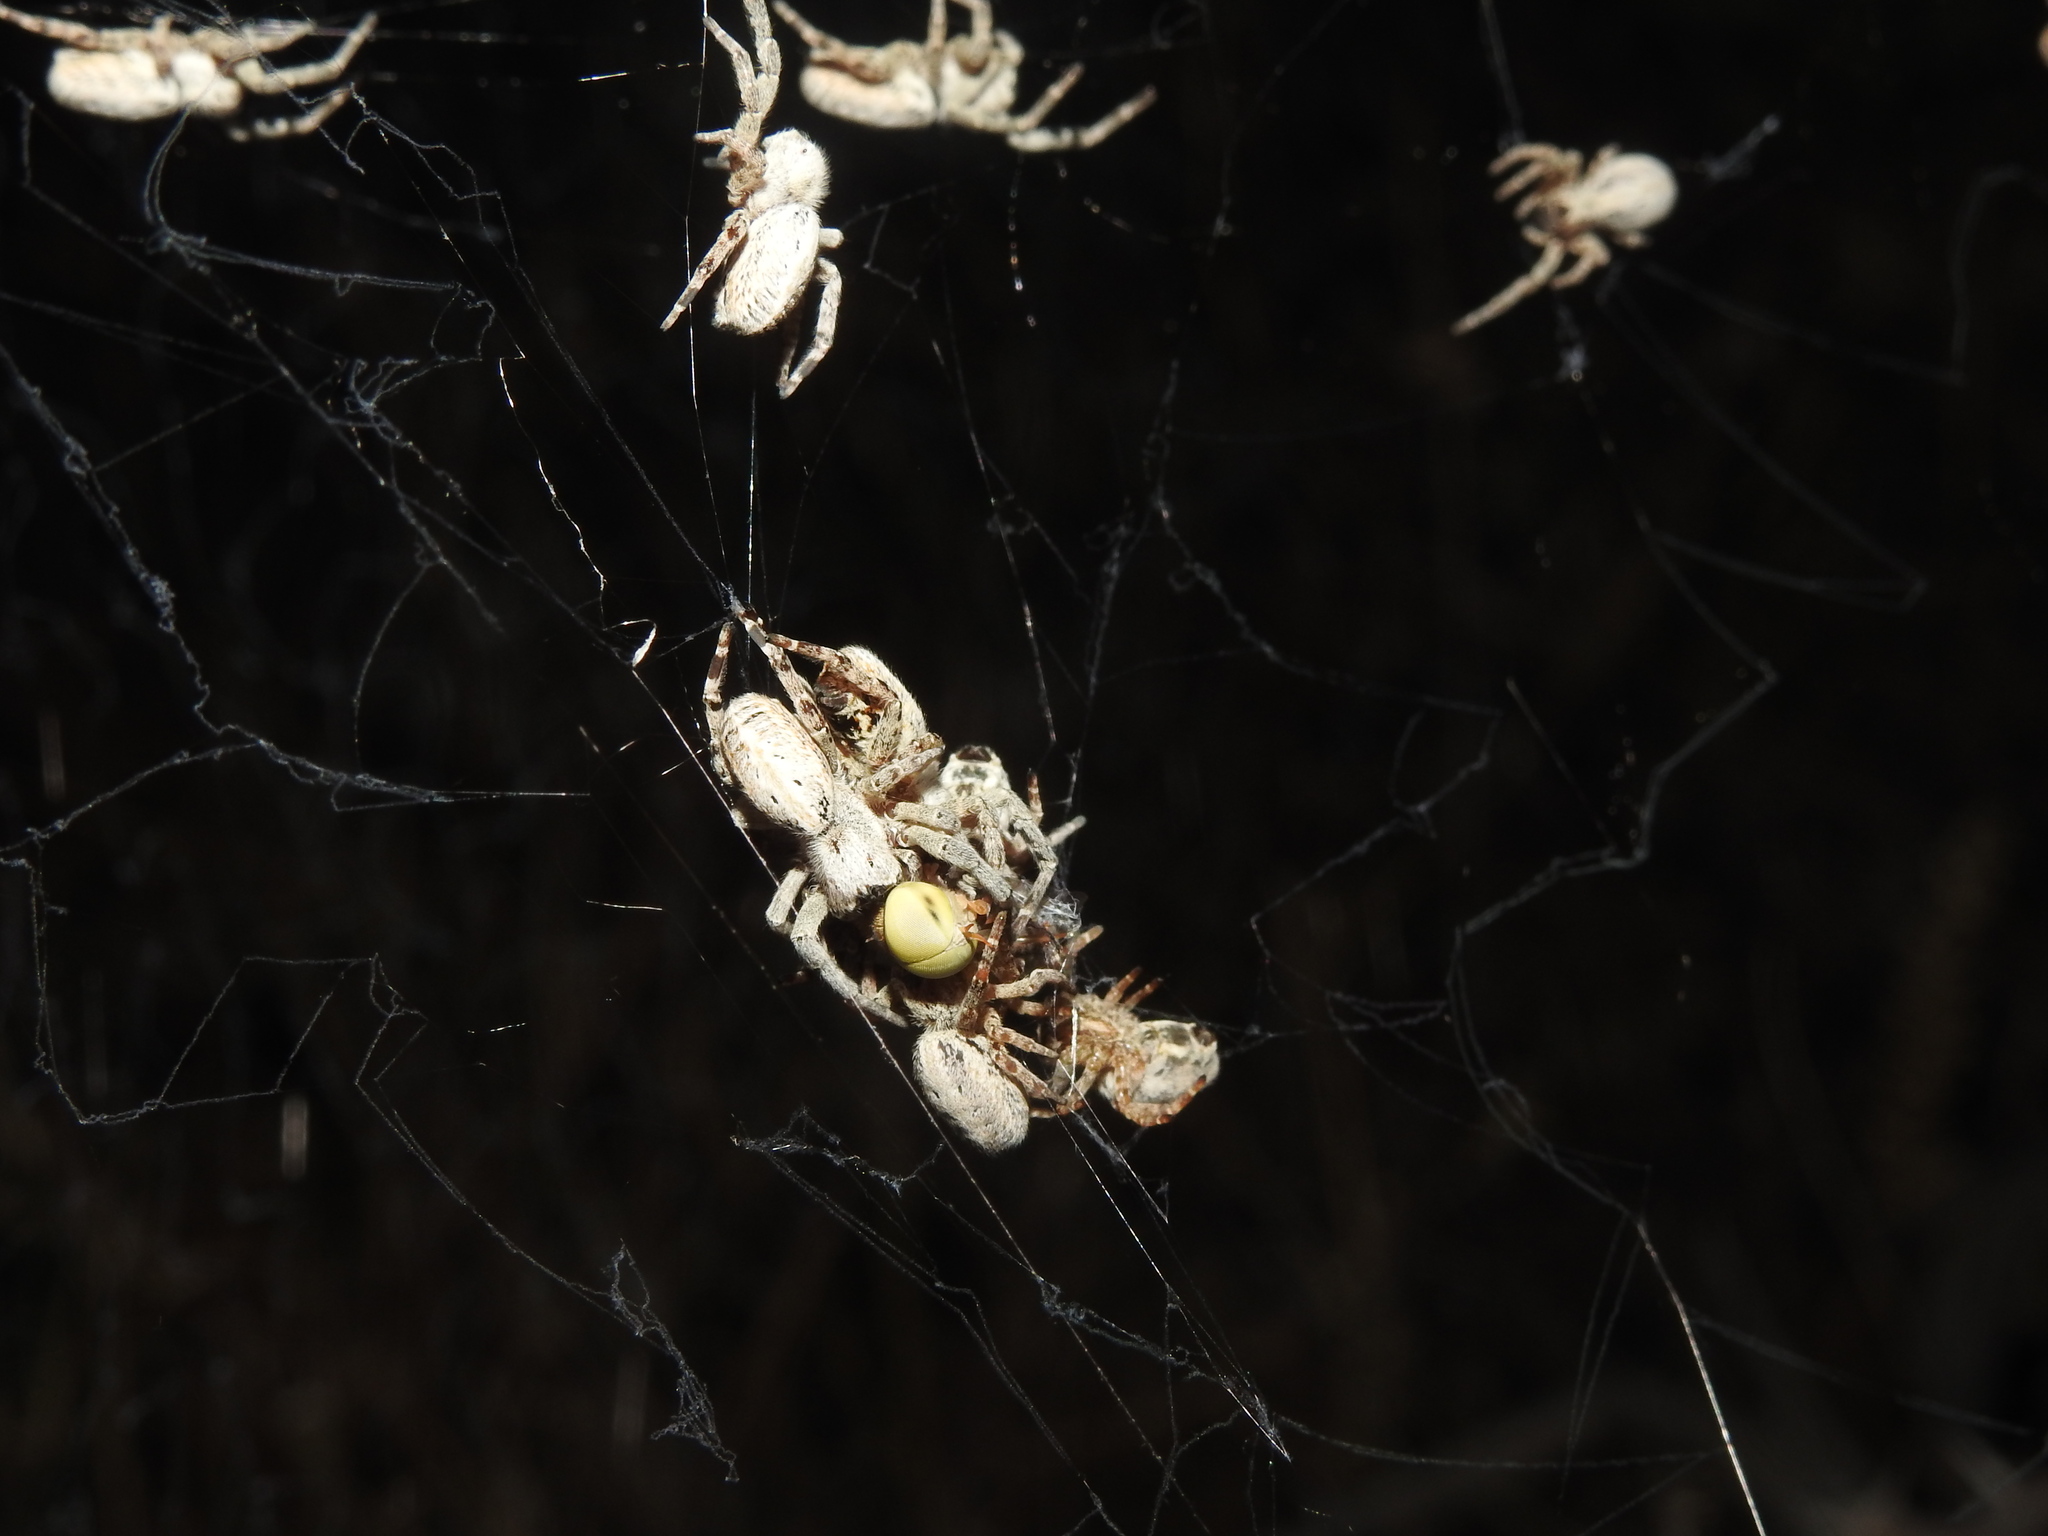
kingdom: Animalia
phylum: Arthropoda
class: Arachnida
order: Araneae
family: Eresidae
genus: Stegodyphus
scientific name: Stegodyphus sarasinorum
